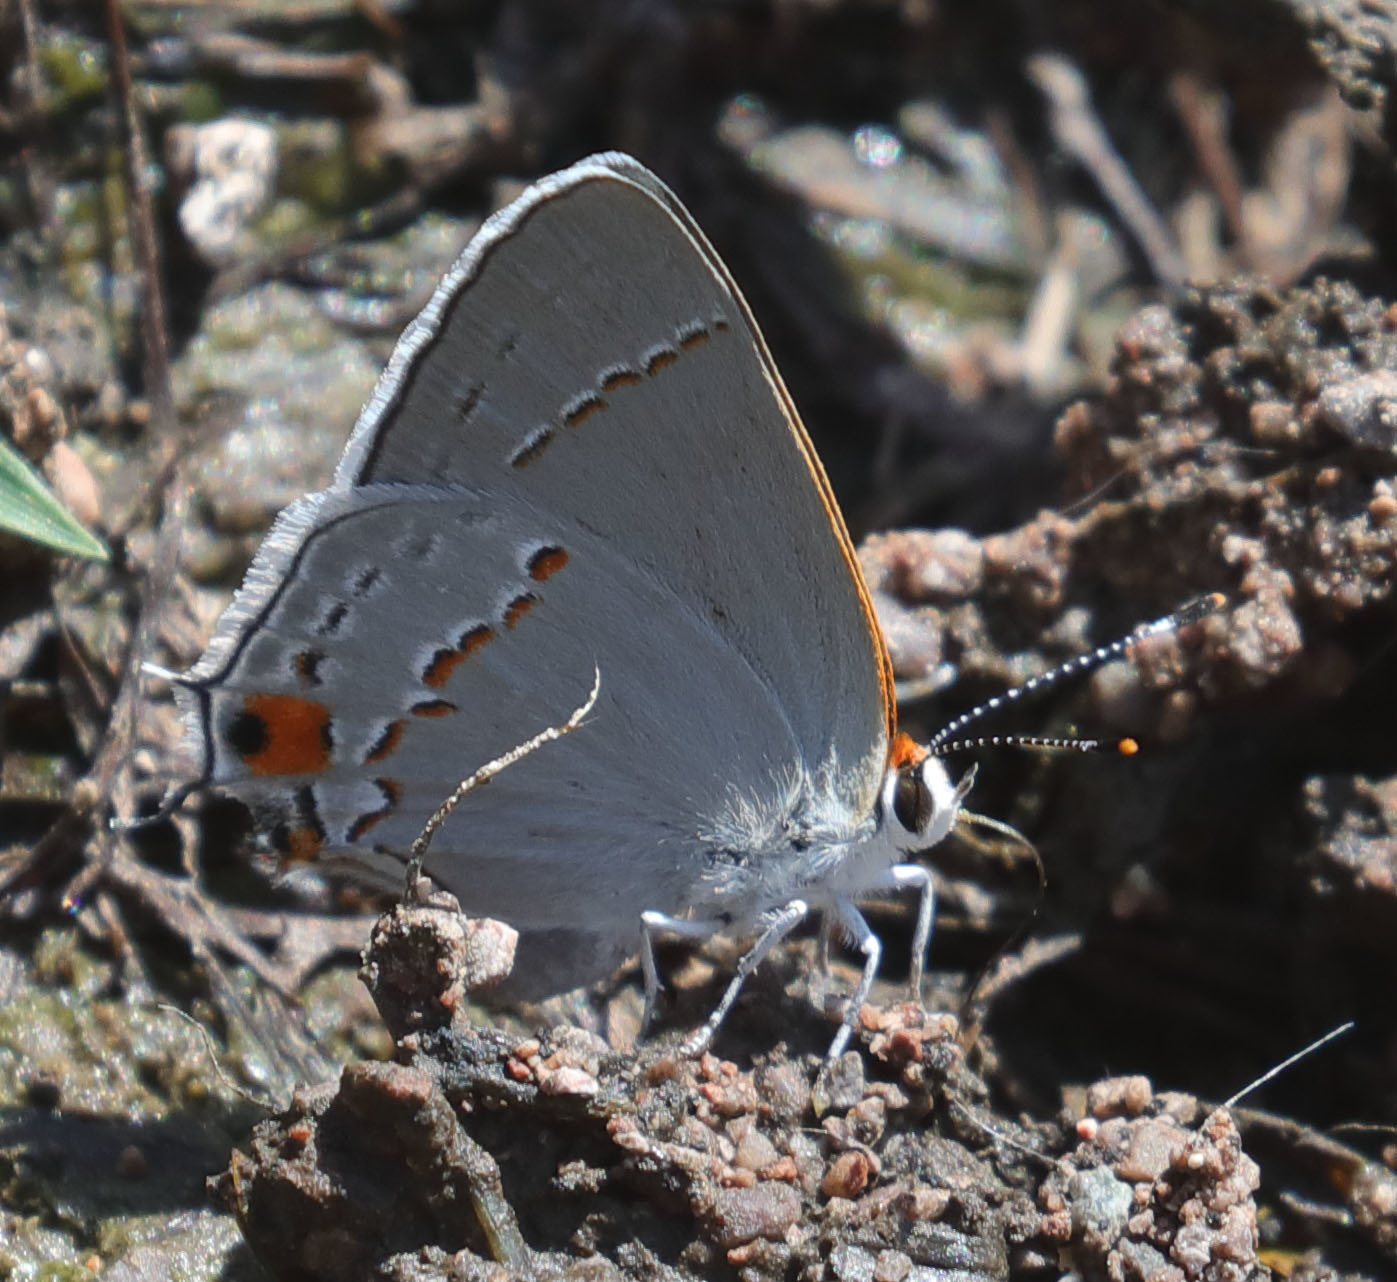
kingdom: Animalia
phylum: Arthropoda
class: Insecta
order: Lepidoptera
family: Lycaenidae
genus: Strymon
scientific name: Strymon melinus
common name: Gray hairstreak
